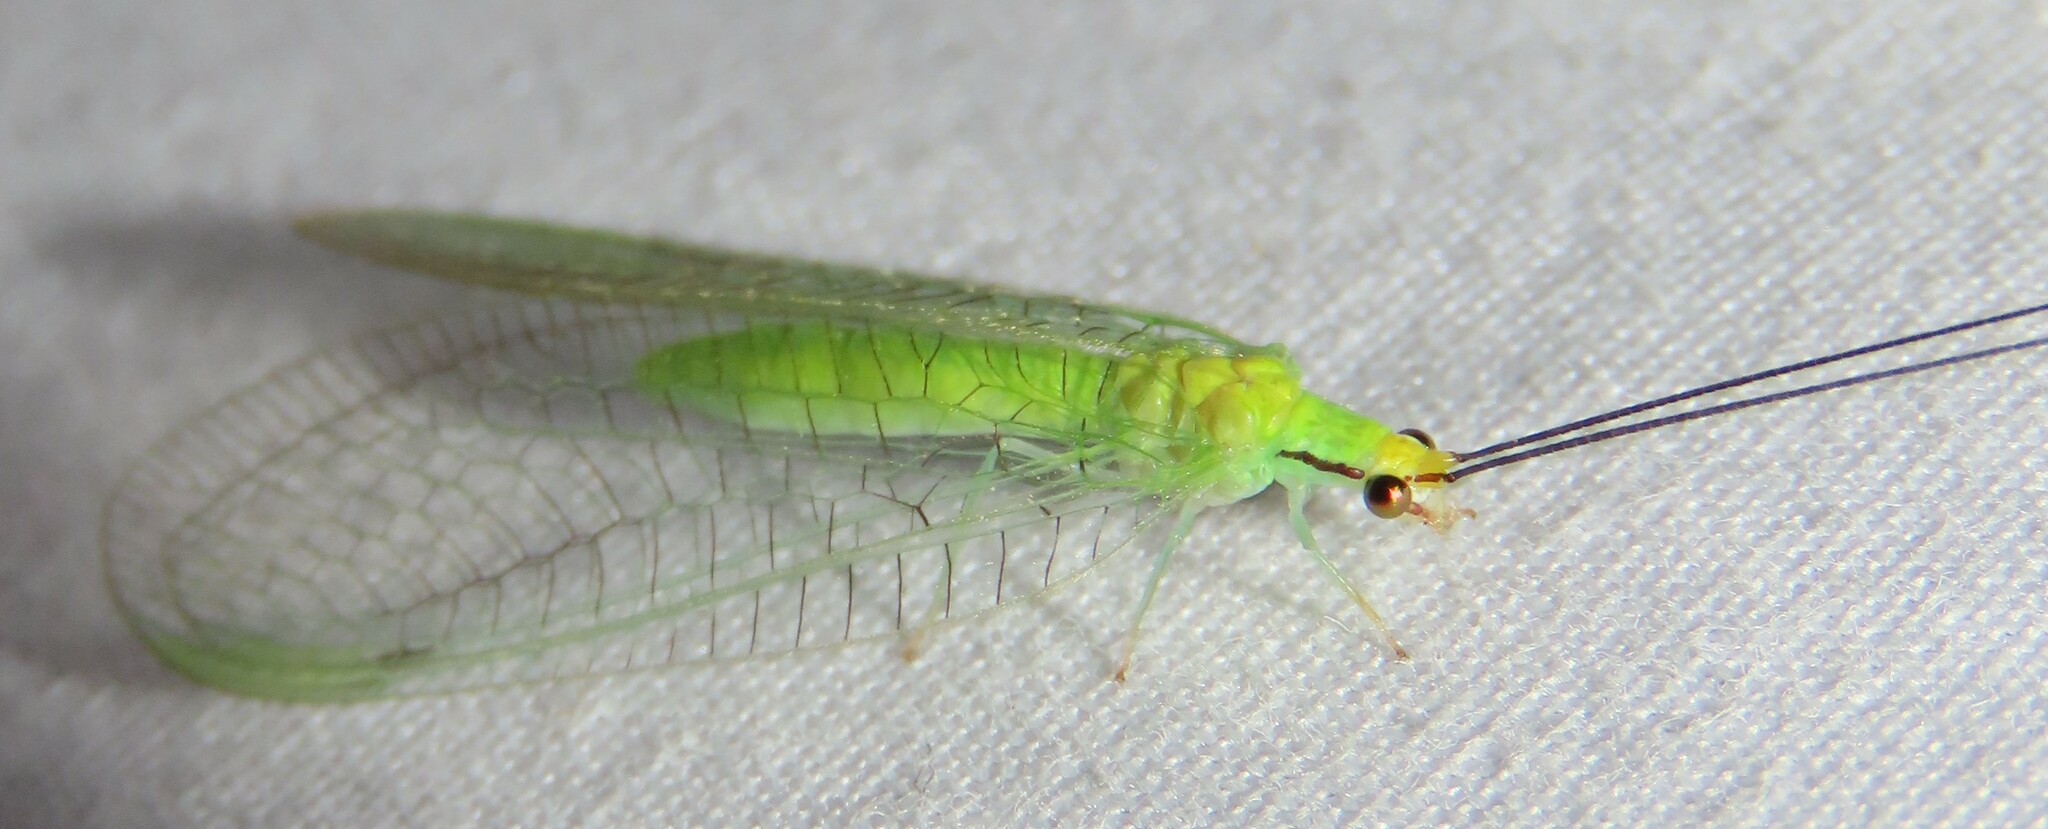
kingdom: Animalia
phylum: Arthropoda
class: Insecta
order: Neuroptera
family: Chrysopidae
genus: Ceraeochrysa
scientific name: Ceraeochrysa lineaticornis
